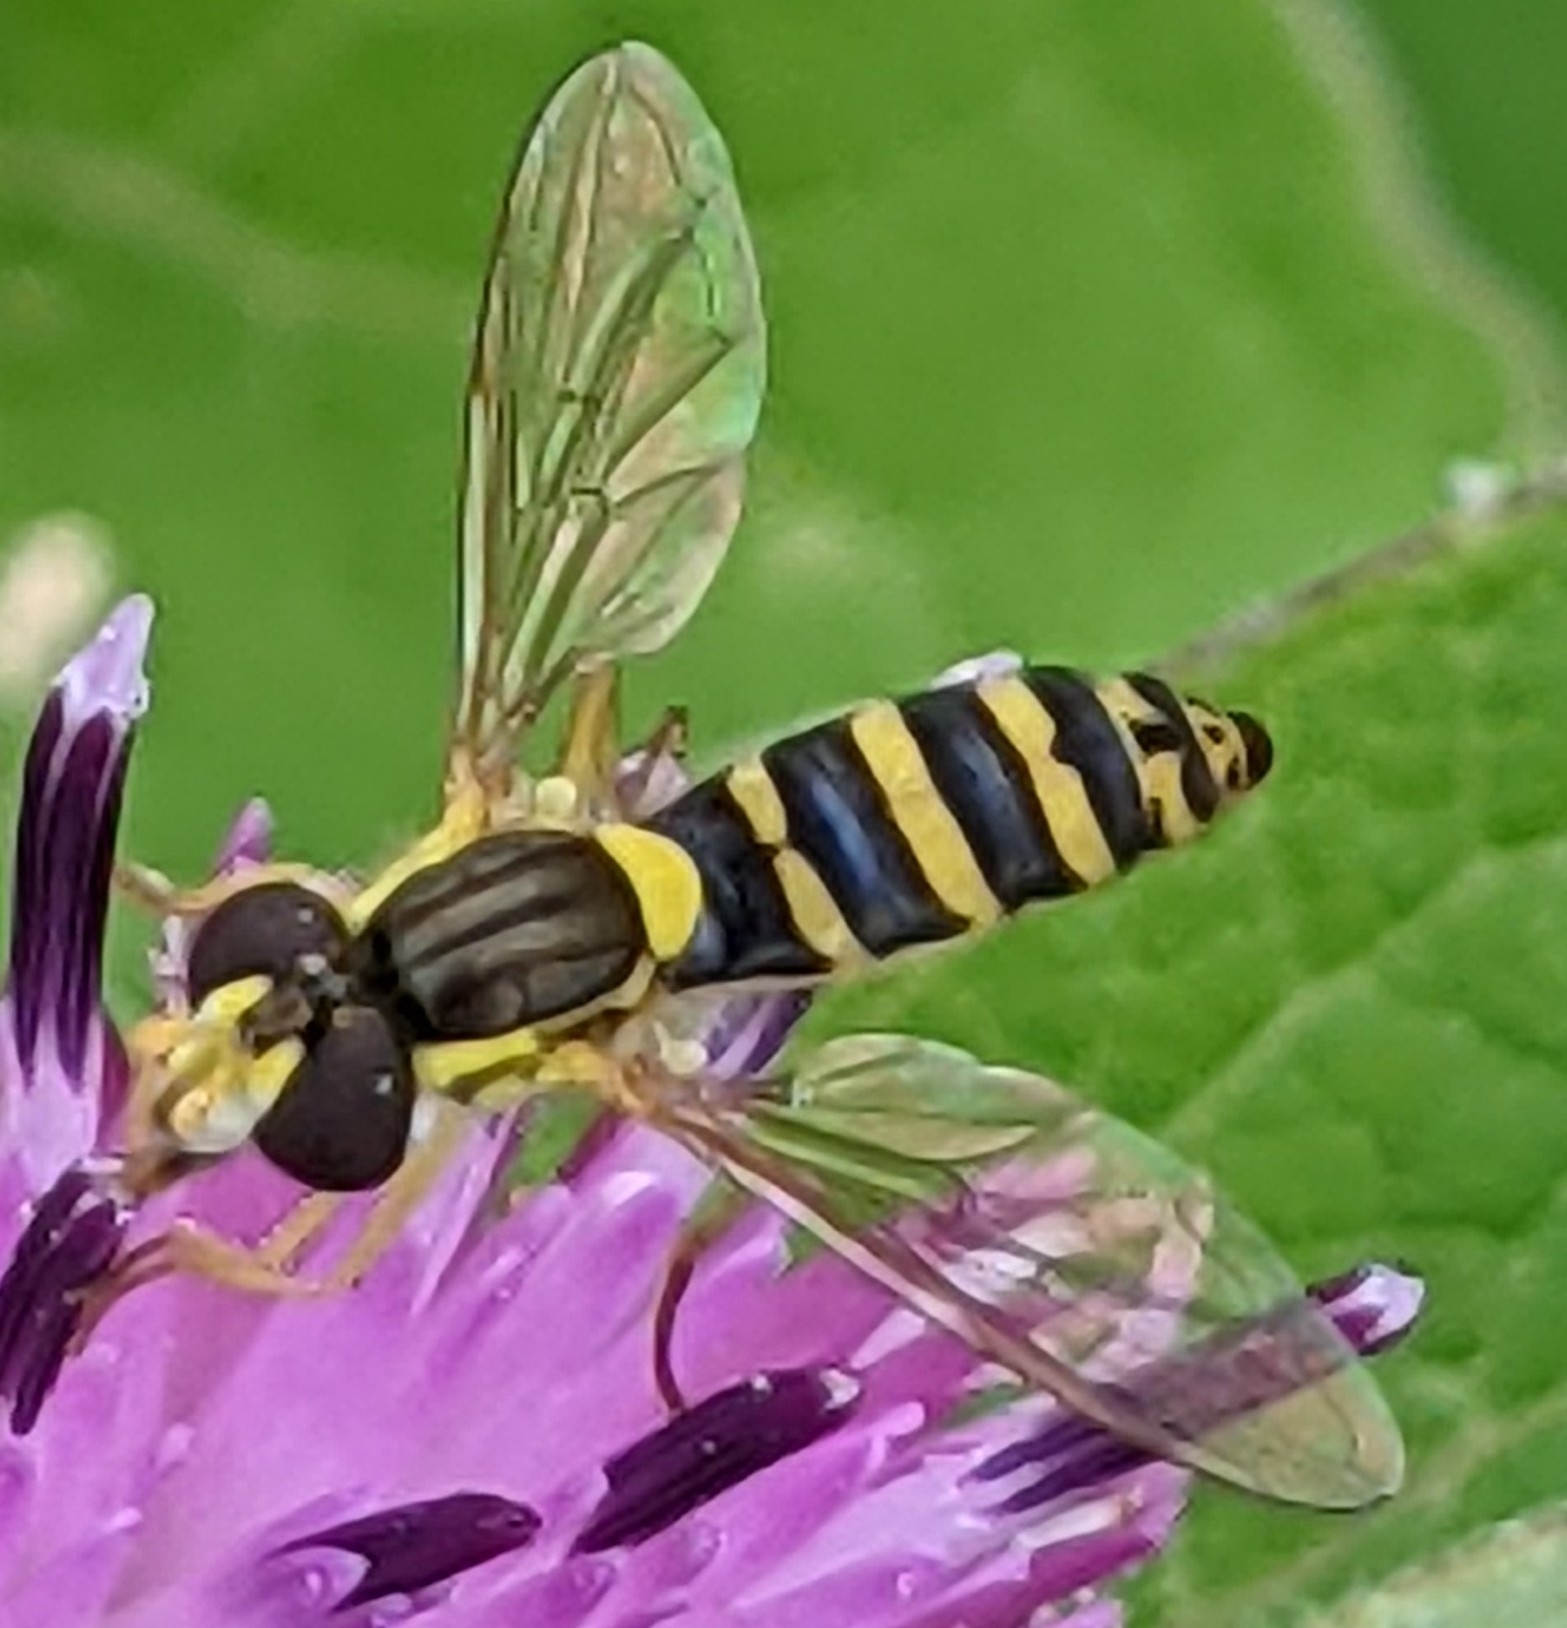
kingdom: Animalia
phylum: Arthropoda
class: Insecta
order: Diptera
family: Syrphidae
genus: Sphaerophoria
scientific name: Sphaerophoria
